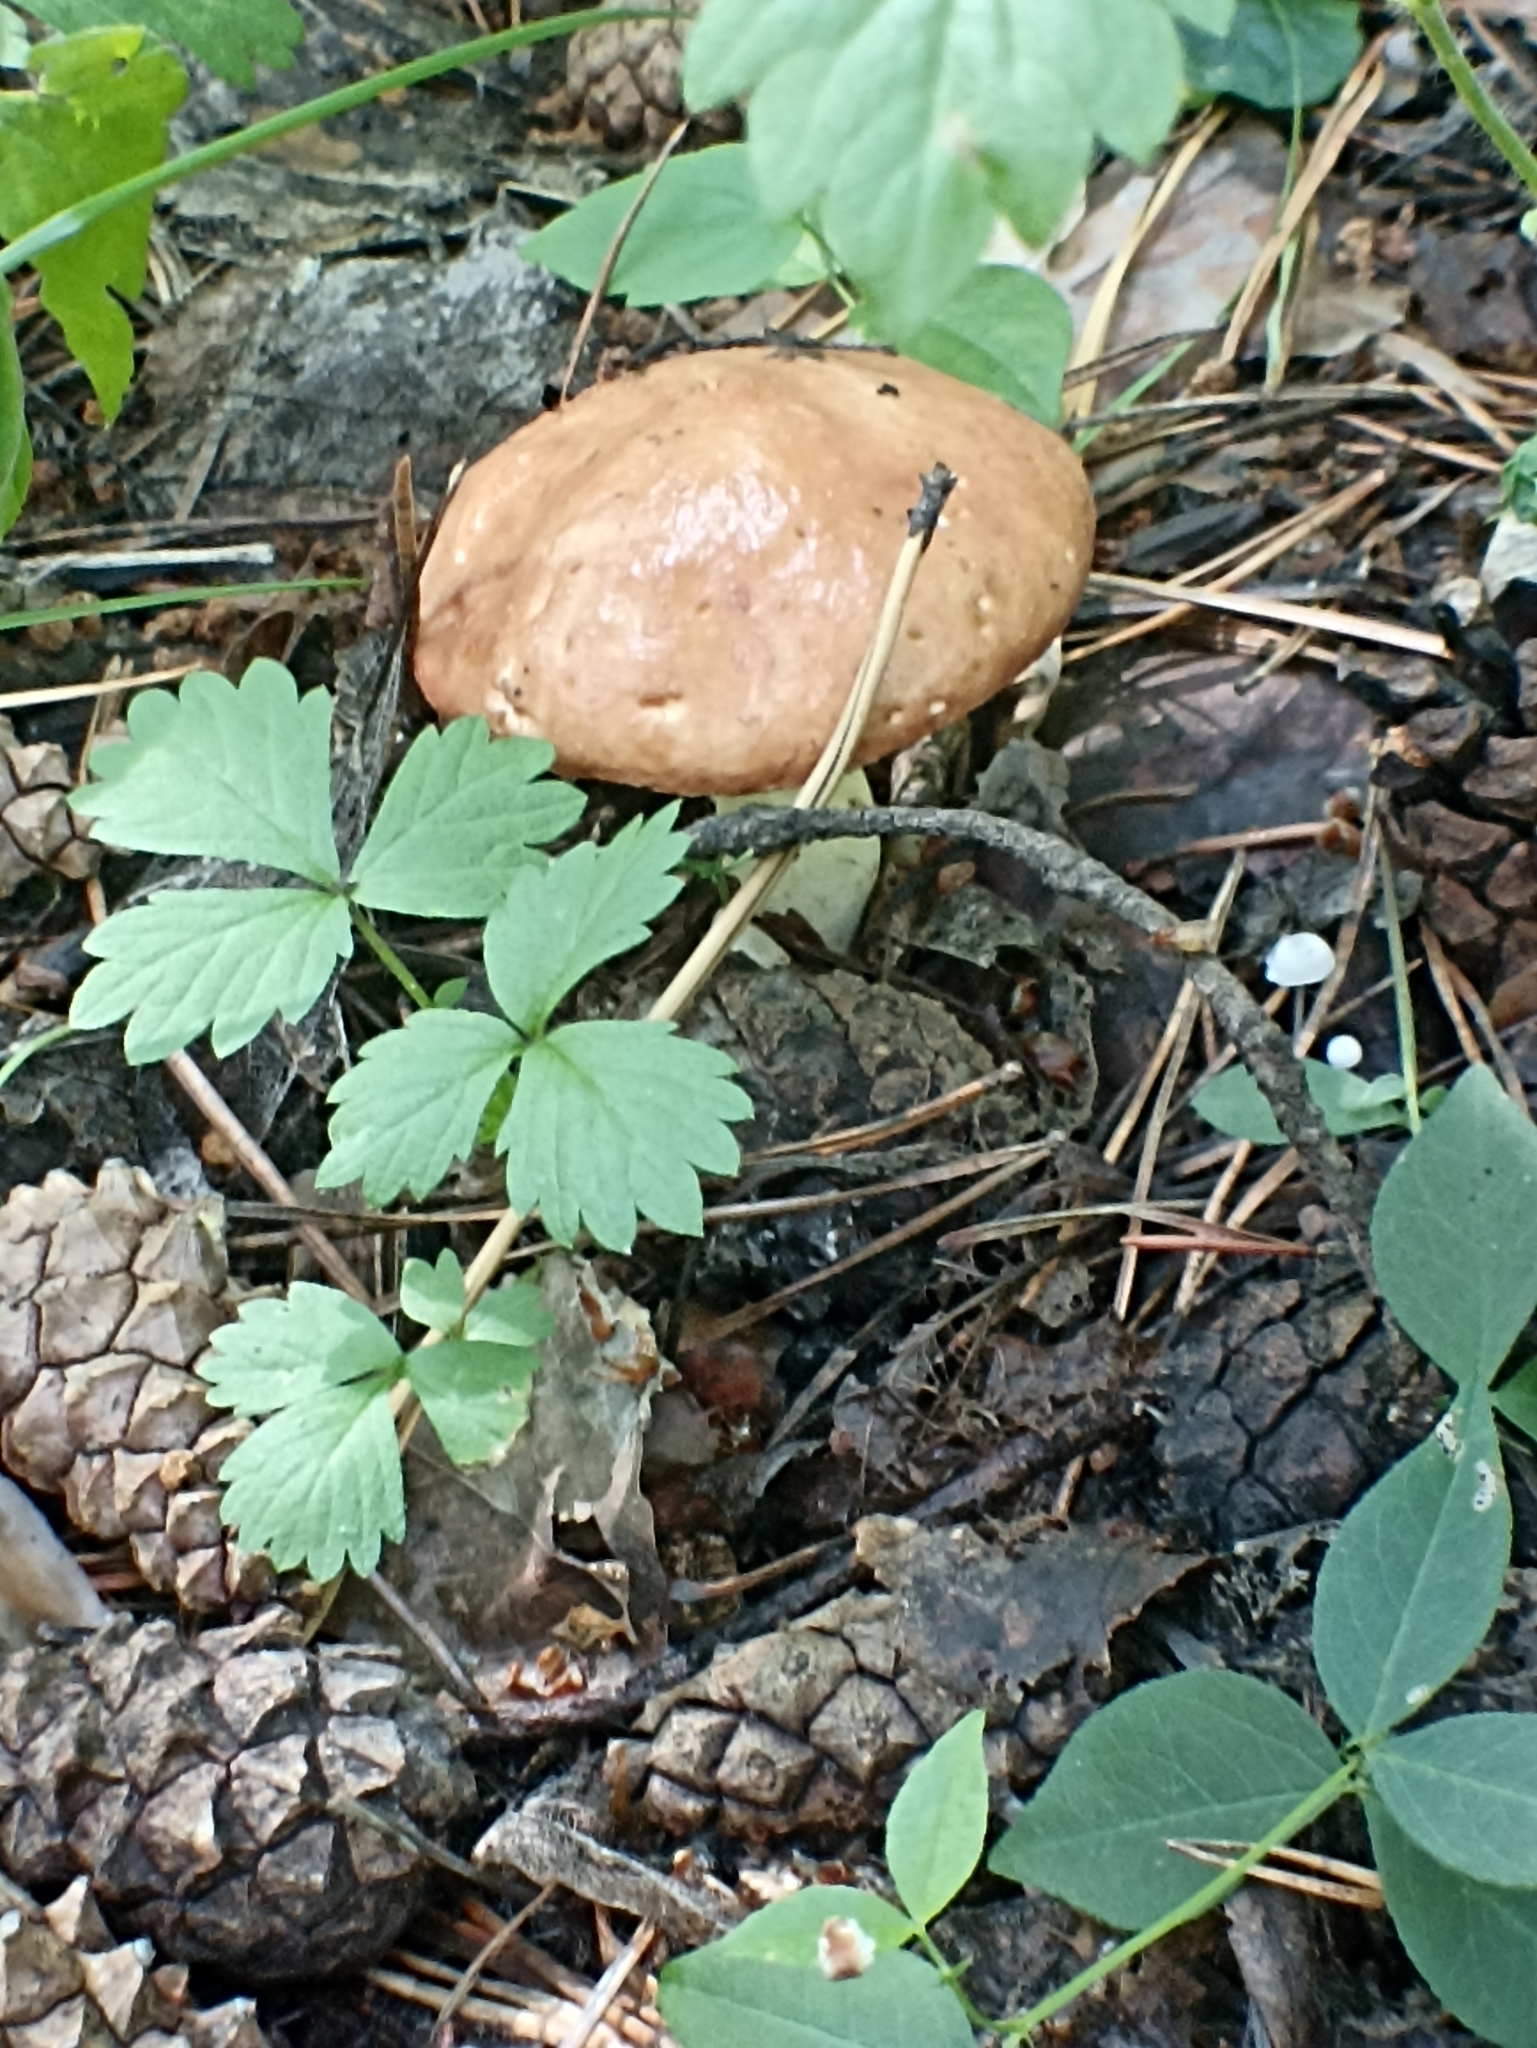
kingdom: Fungi
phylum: Basidiomycota
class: Agaricomycetes
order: Boletales
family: Suillaceae
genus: Suillus
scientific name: Suillus granulatus
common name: Weeping bolete
